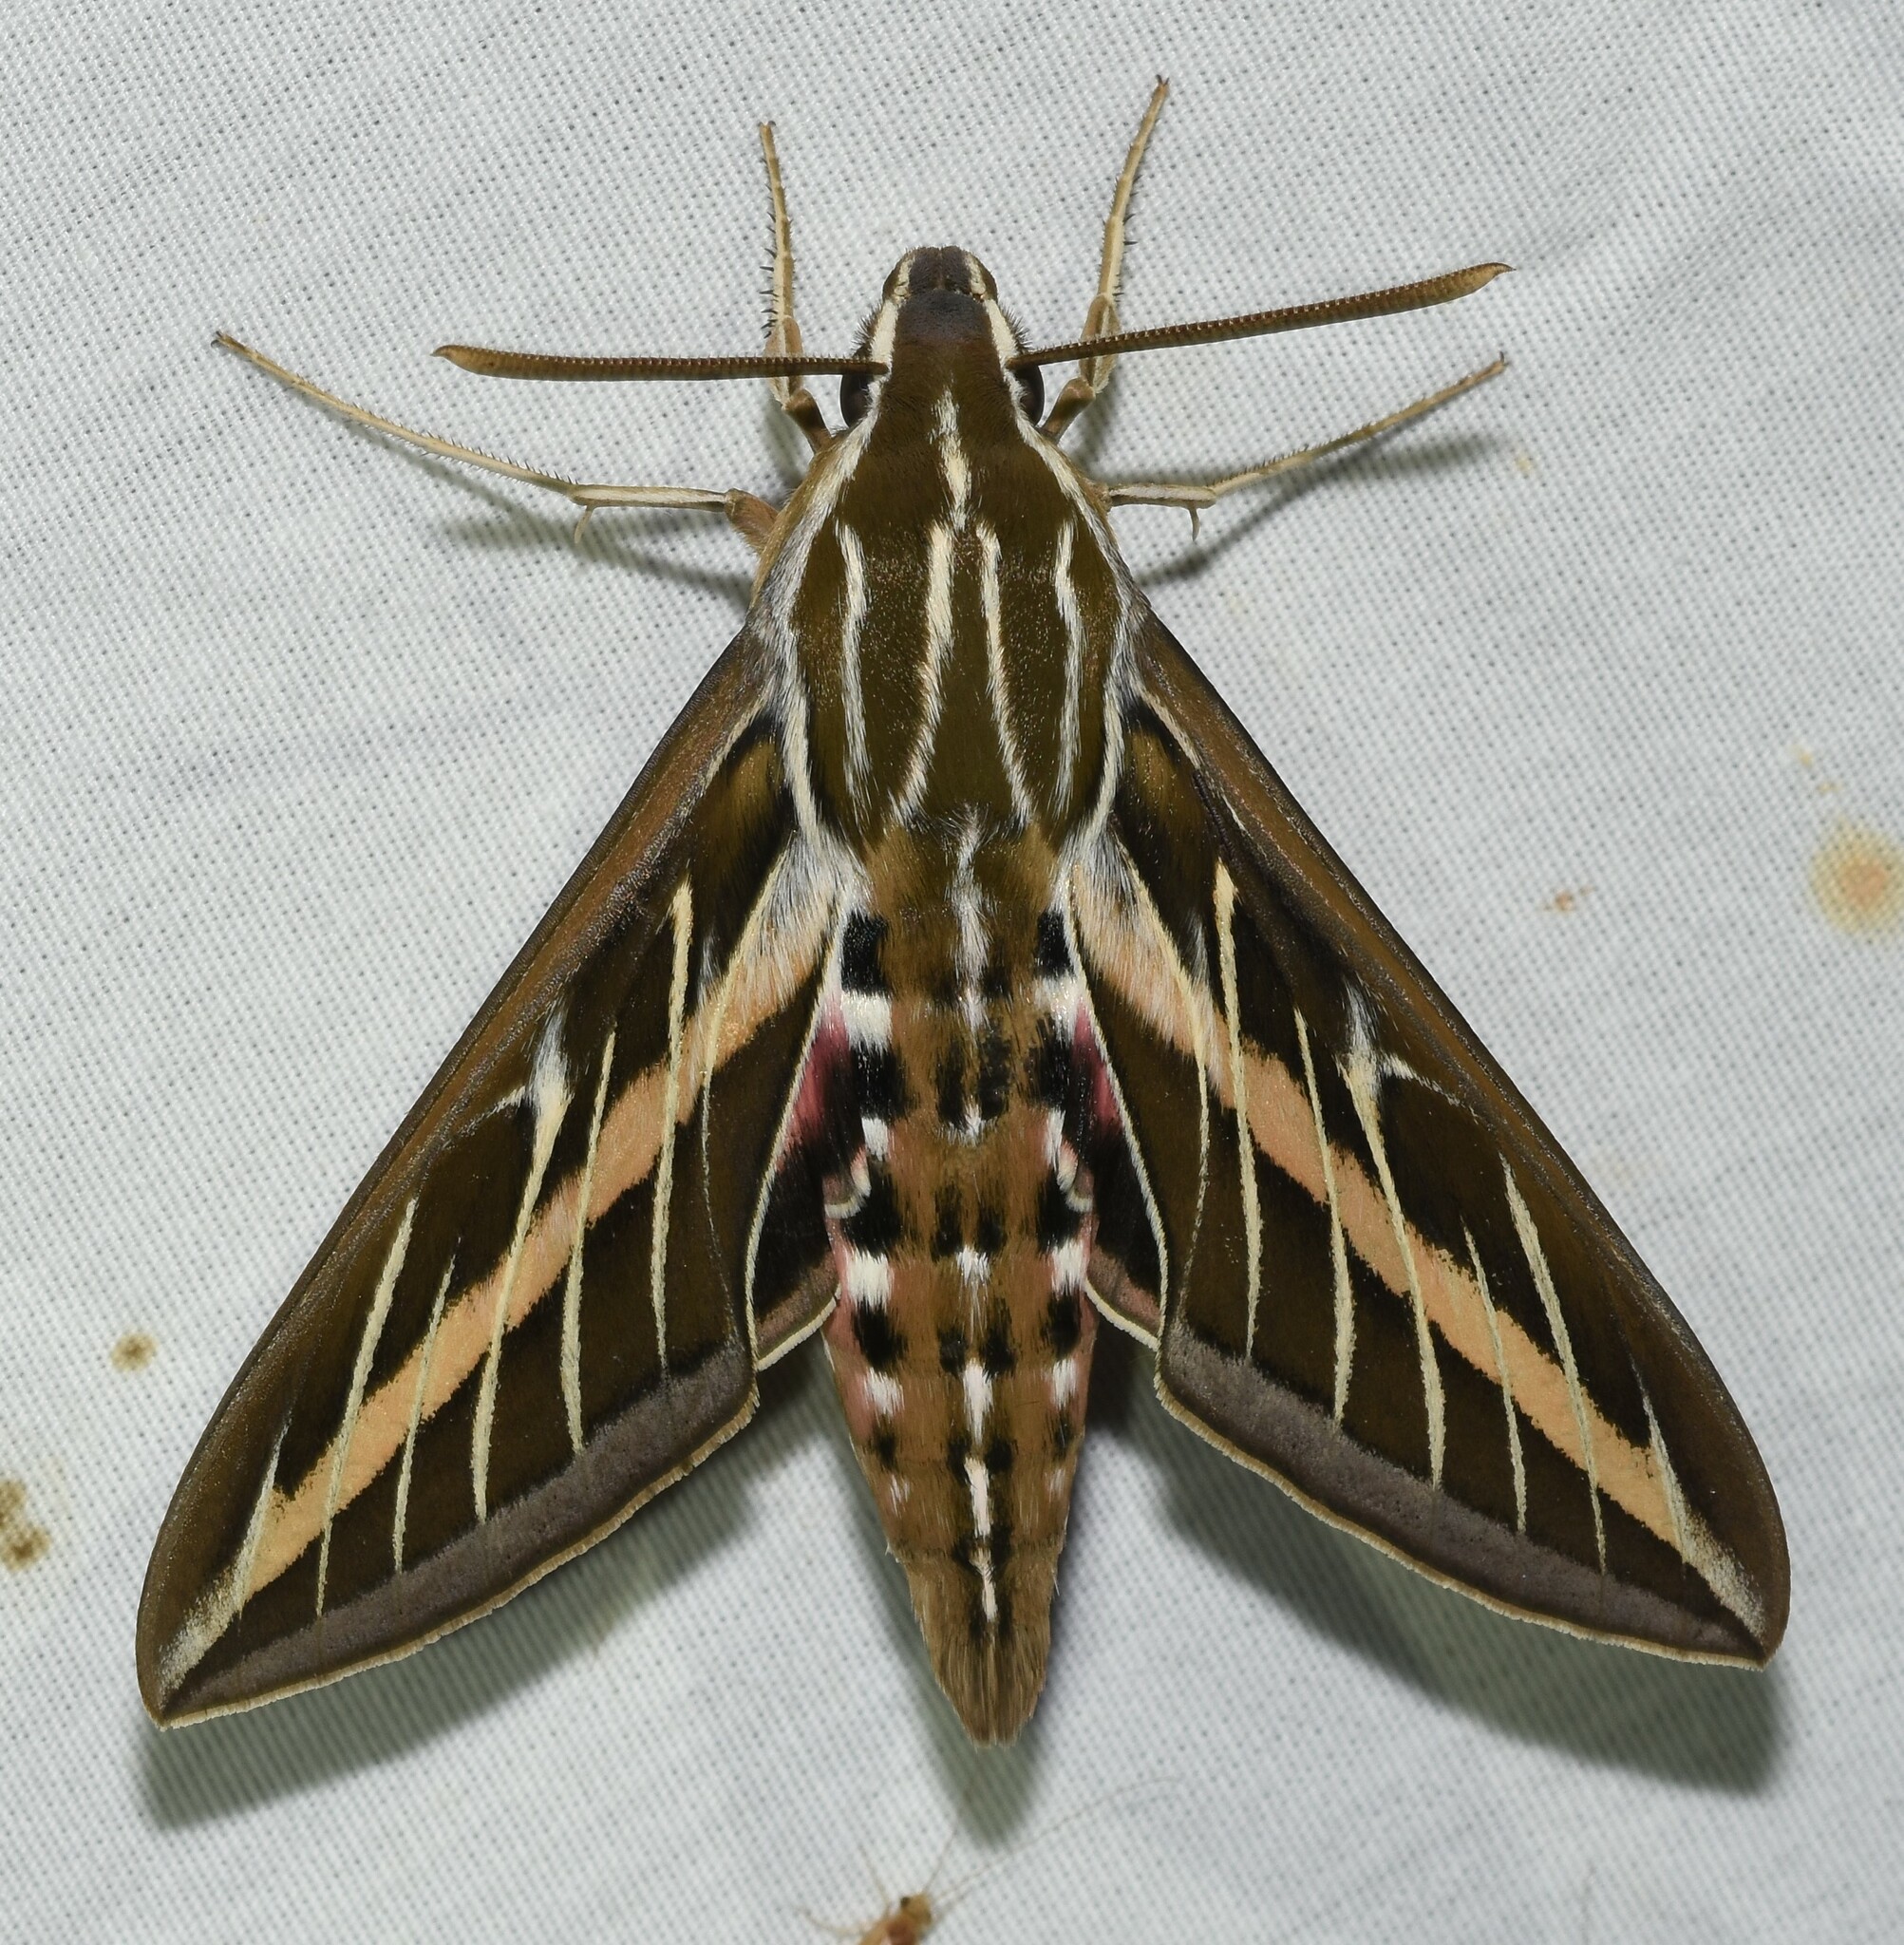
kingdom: Animalia
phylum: Arthropoda
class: Insecta
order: Lepidoptera
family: Sphingidae
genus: Hyles
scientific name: Hyles lineata
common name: White-lined sphinx
